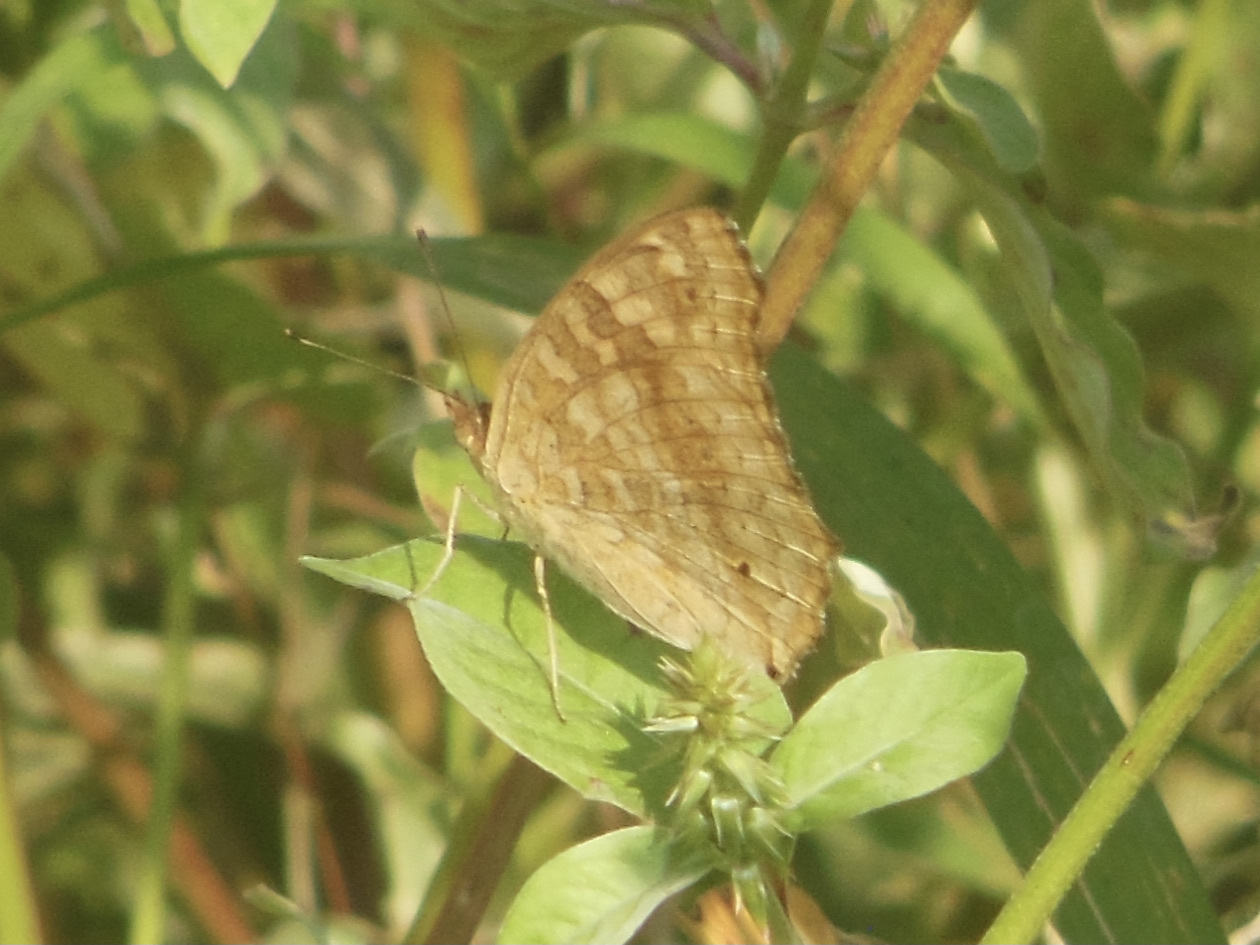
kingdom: Animalia
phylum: Arthropoda
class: Insecta
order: Lepidoptera
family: Nymphalidae
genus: Junonia
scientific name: Junonia lemonias
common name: Lemon pansy
